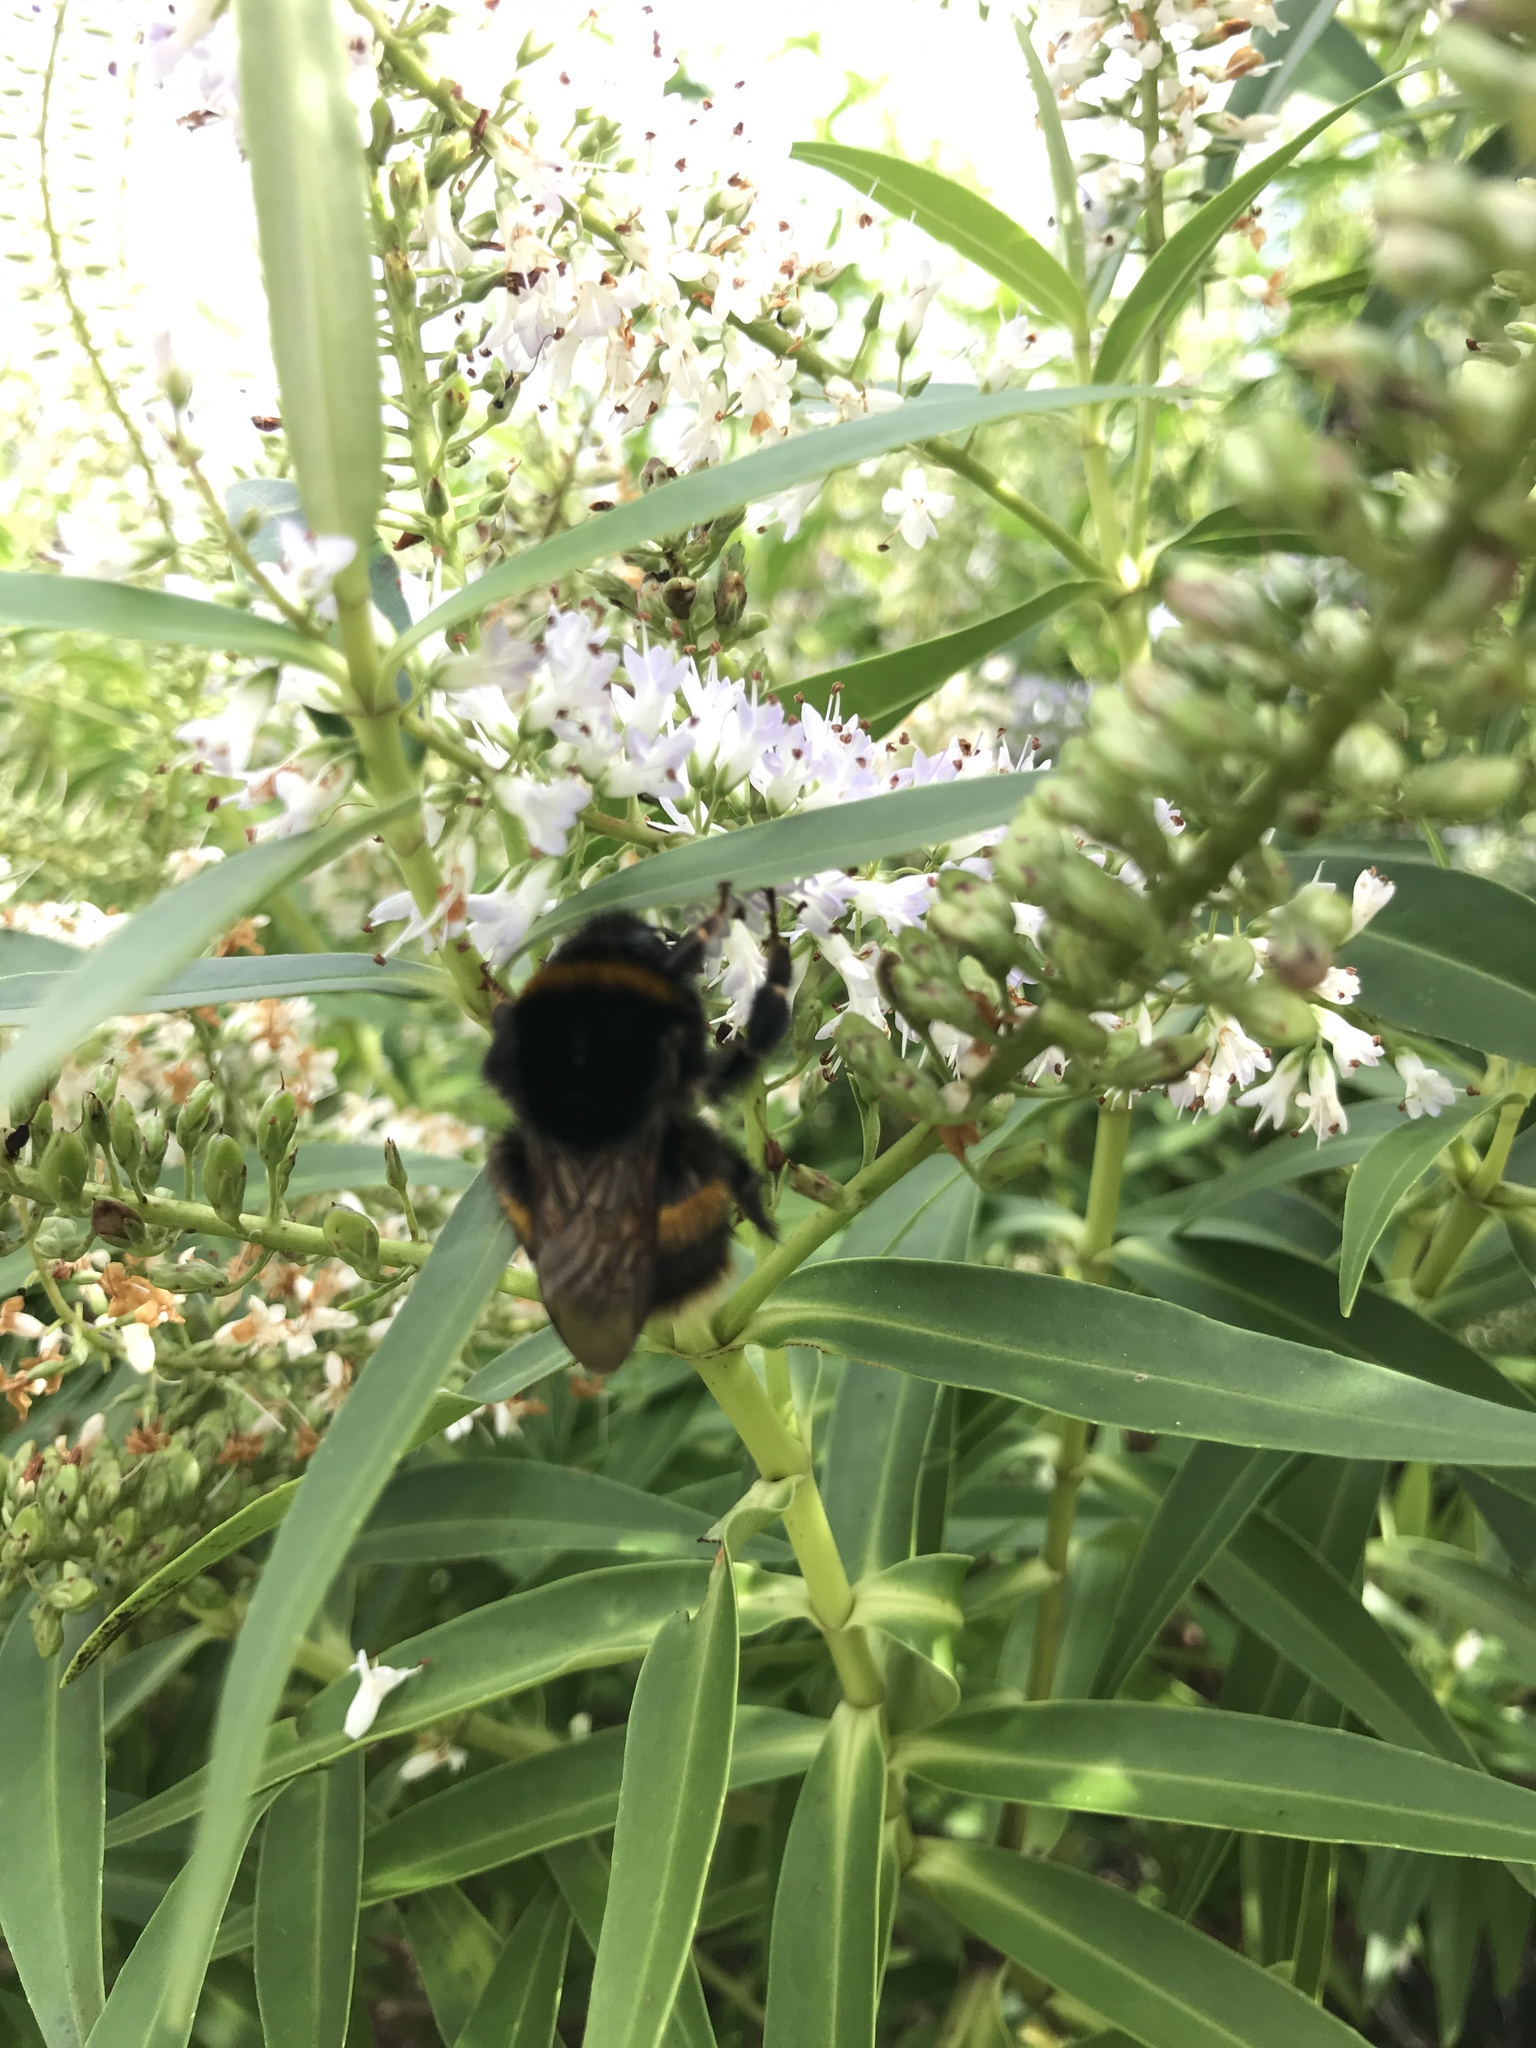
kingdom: Animalia
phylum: Arthropoda
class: Insecta
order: Hymenoptera
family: Apidae
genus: Bombus
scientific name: Bombus terrestris
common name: Buff-tailed bumblebee
